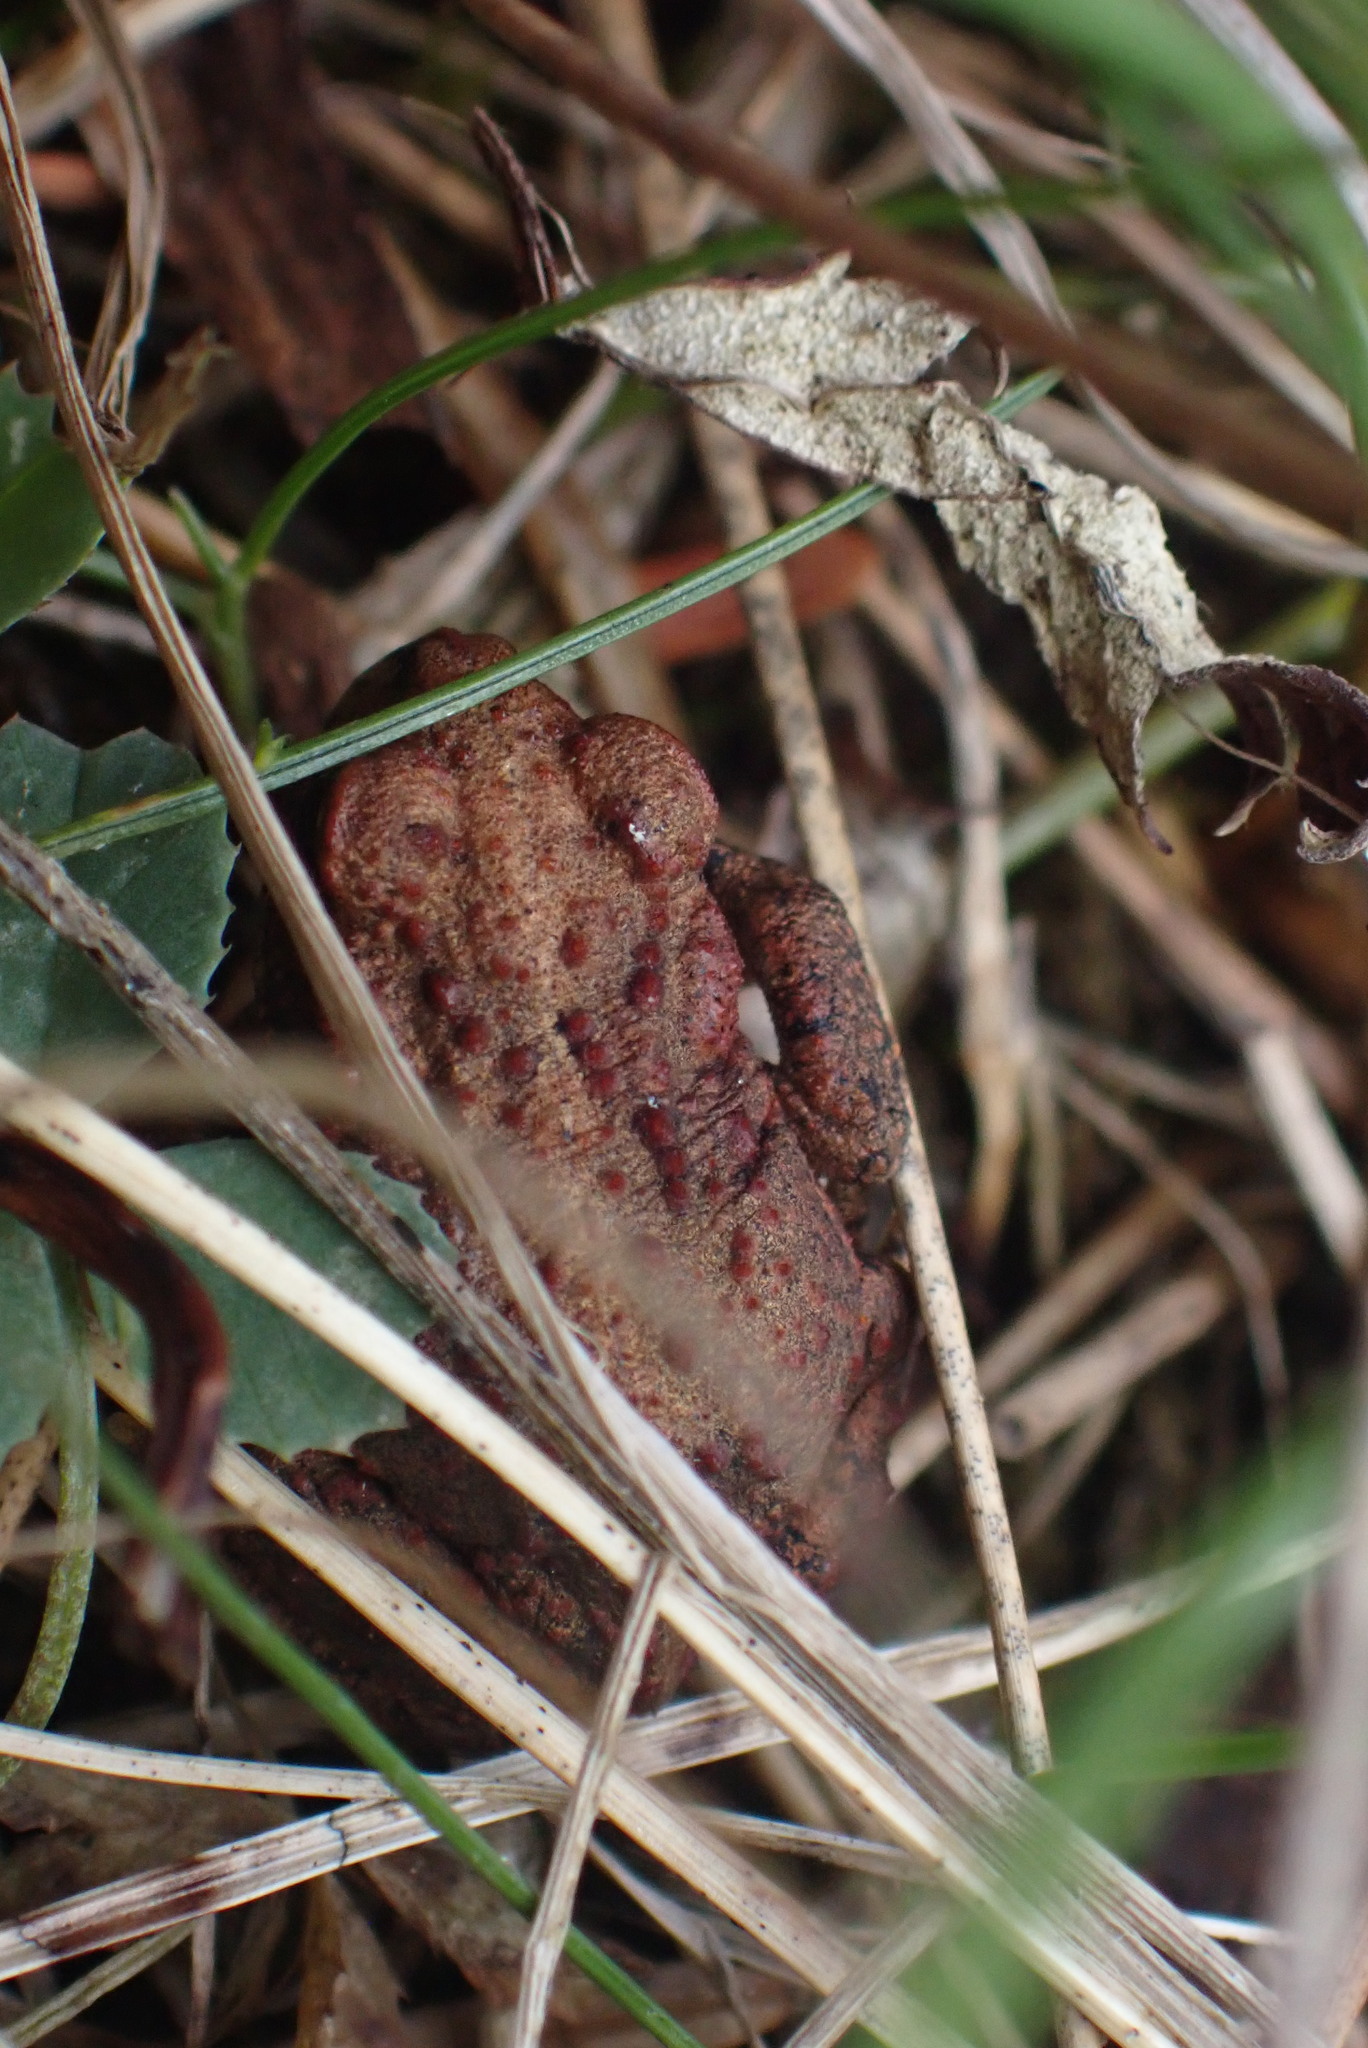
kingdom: Animalia
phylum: Chordata
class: Amphibia
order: Anura
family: Bufonidae
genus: Anaxyrus
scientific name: Anaxyrus boreas
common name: Western toad
